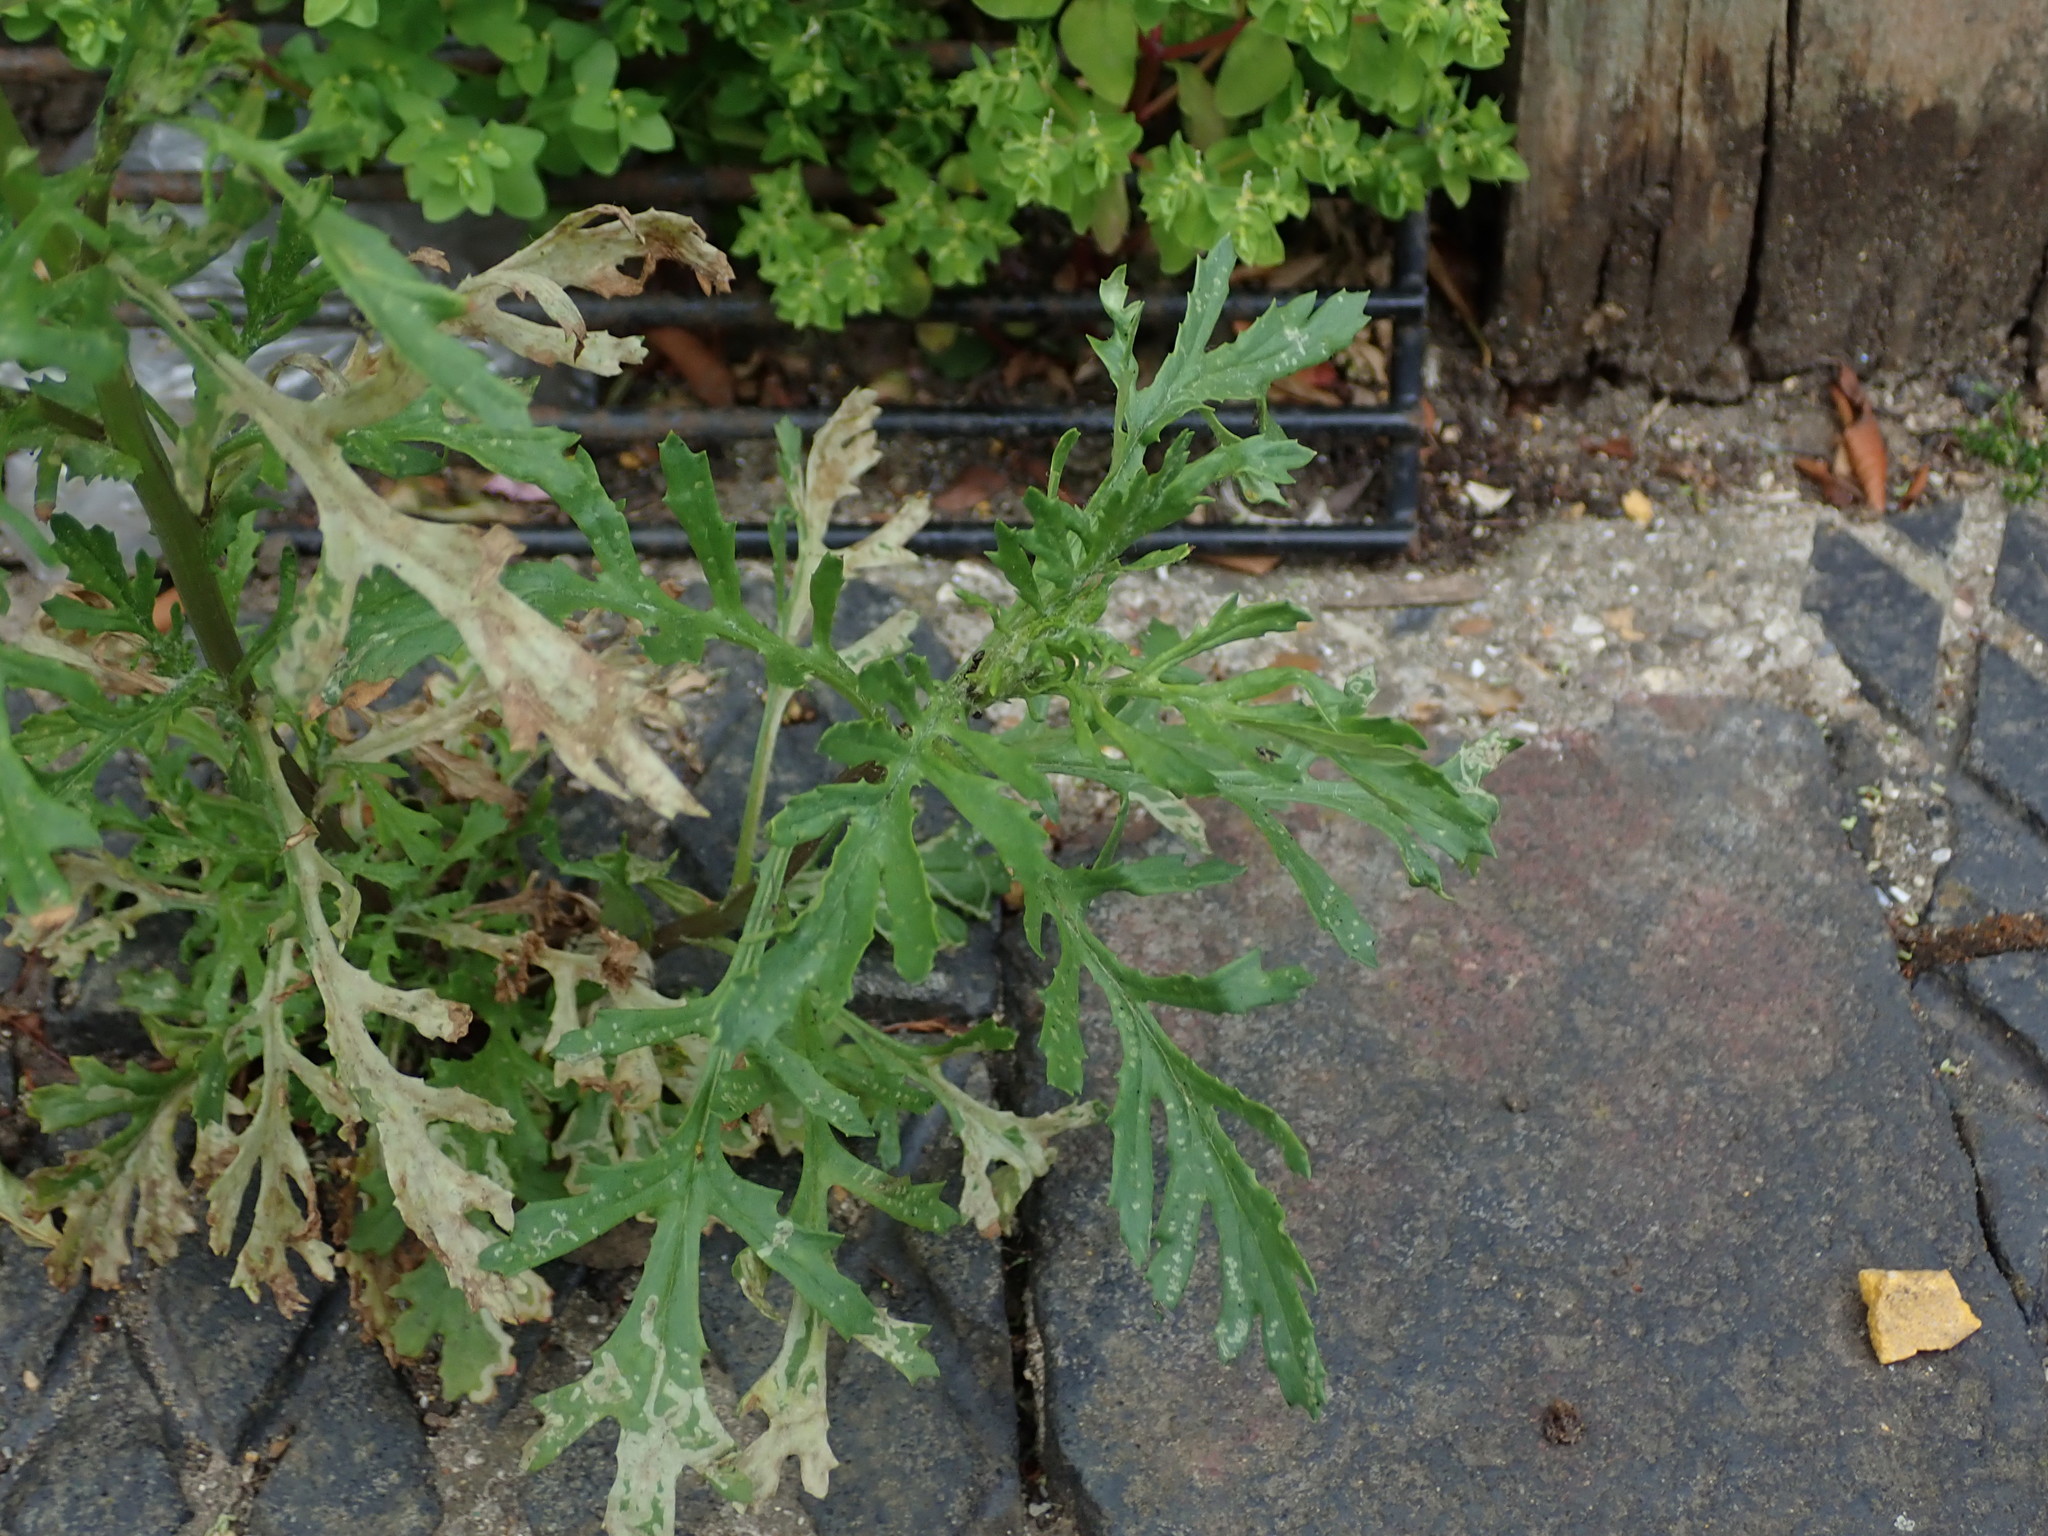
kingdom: Plantae
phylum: Tracheophyta
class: Magnoliopsida
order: Asterales
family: Asteraceae
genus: Senecio
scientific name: Senecio squalidus
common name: Oxford ragwort
